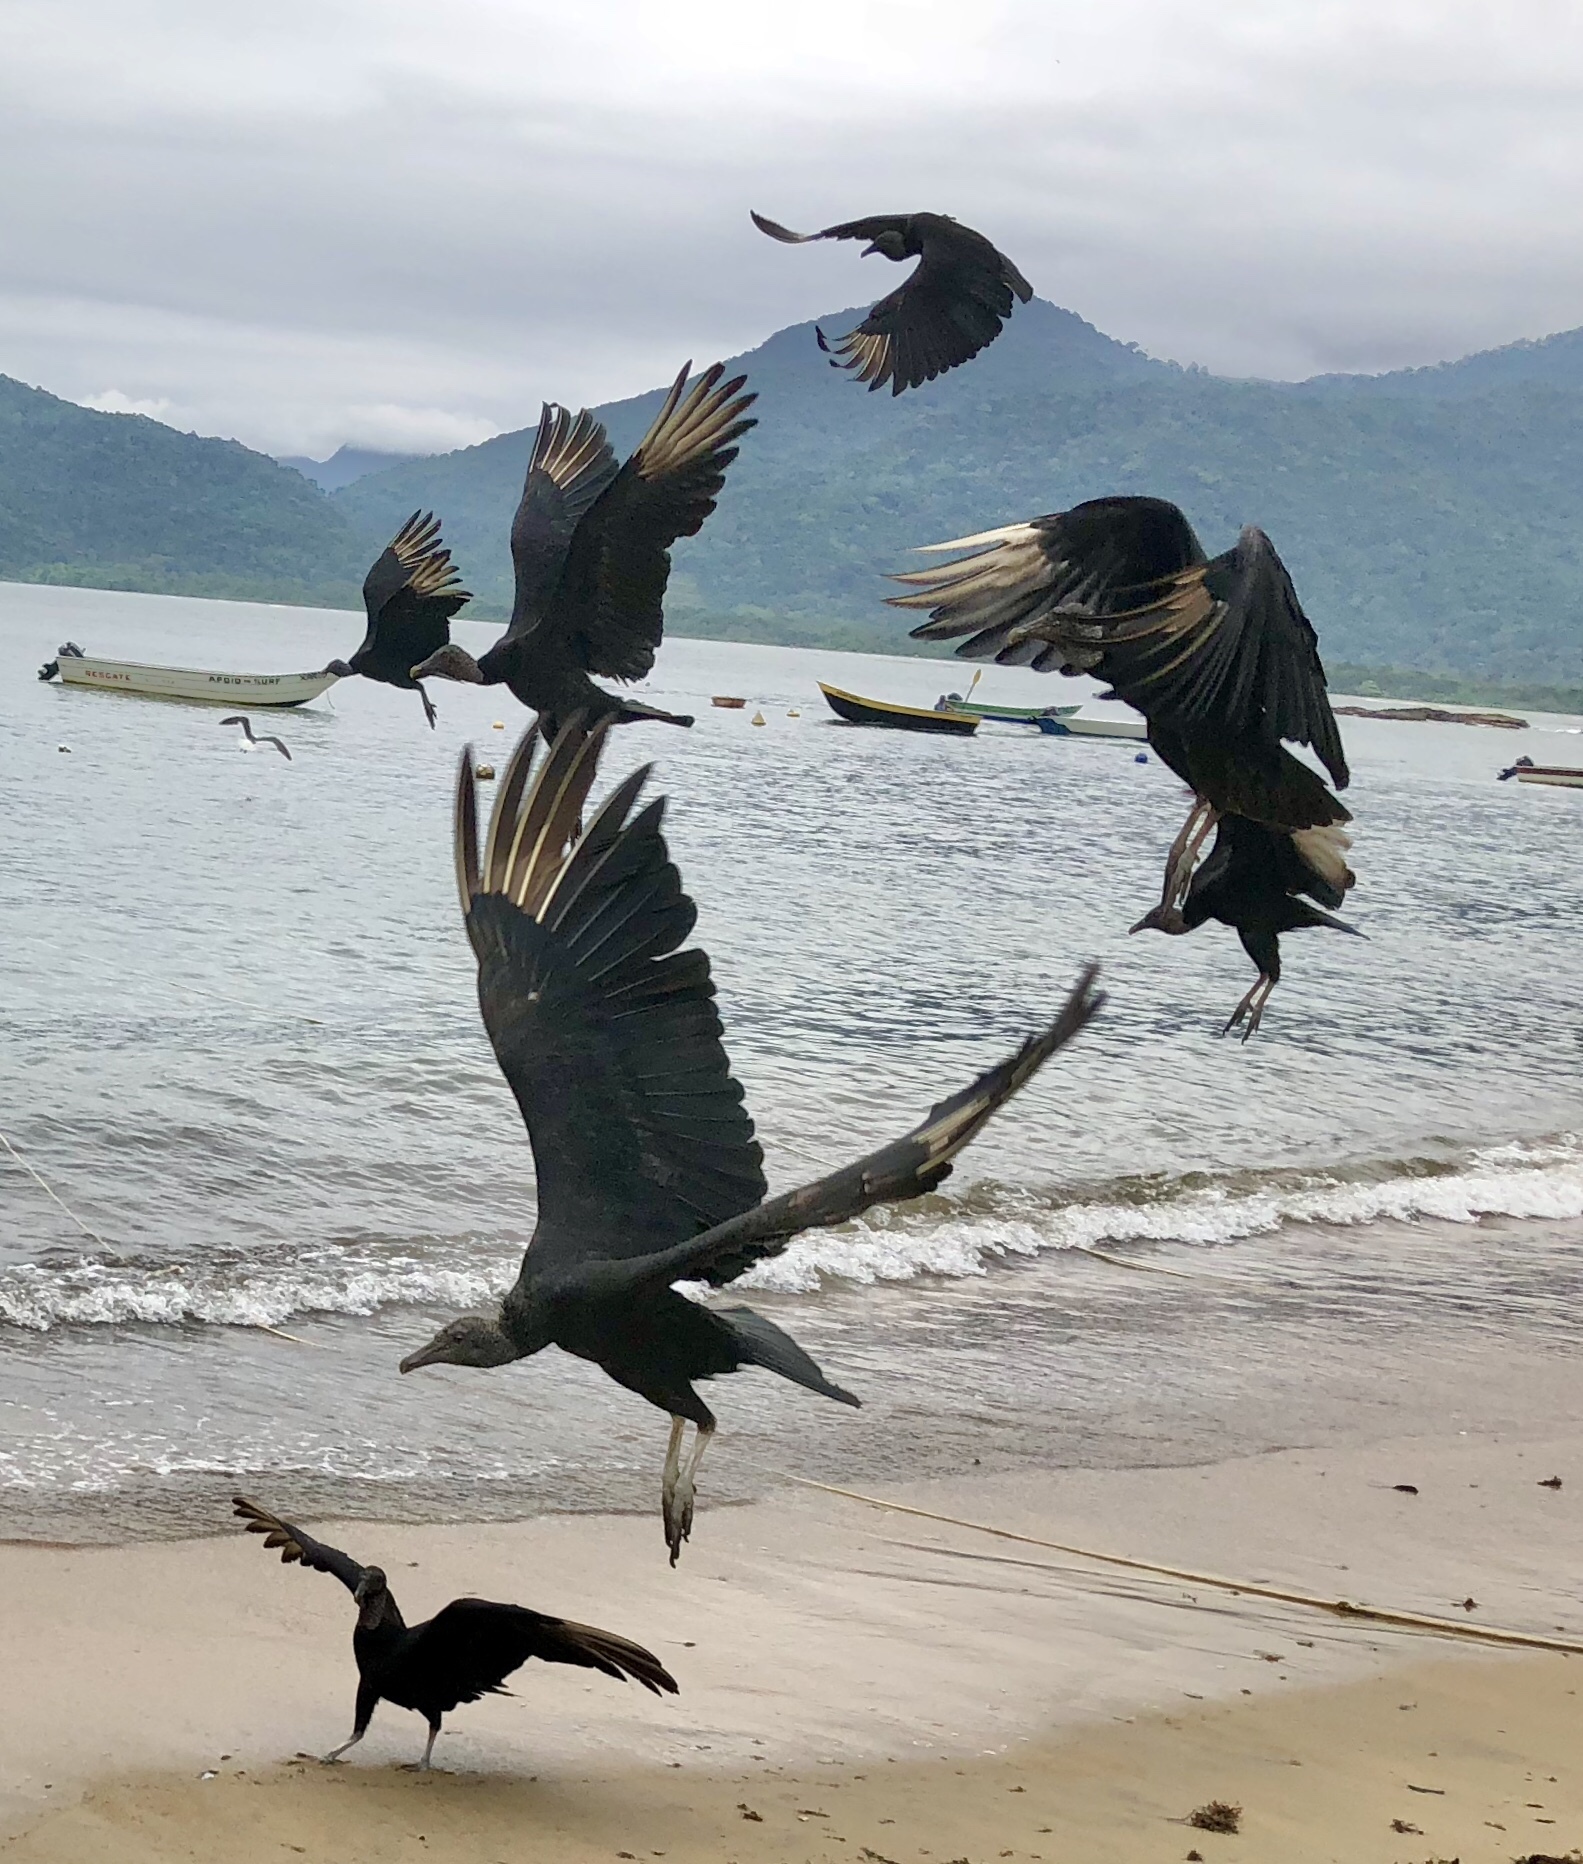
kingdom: Animalia
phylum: Chordata
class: Aves
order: Accipitriformes
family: Cathartidae
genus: Coragyps
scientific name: Coragyps atratus
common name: Black vulture
